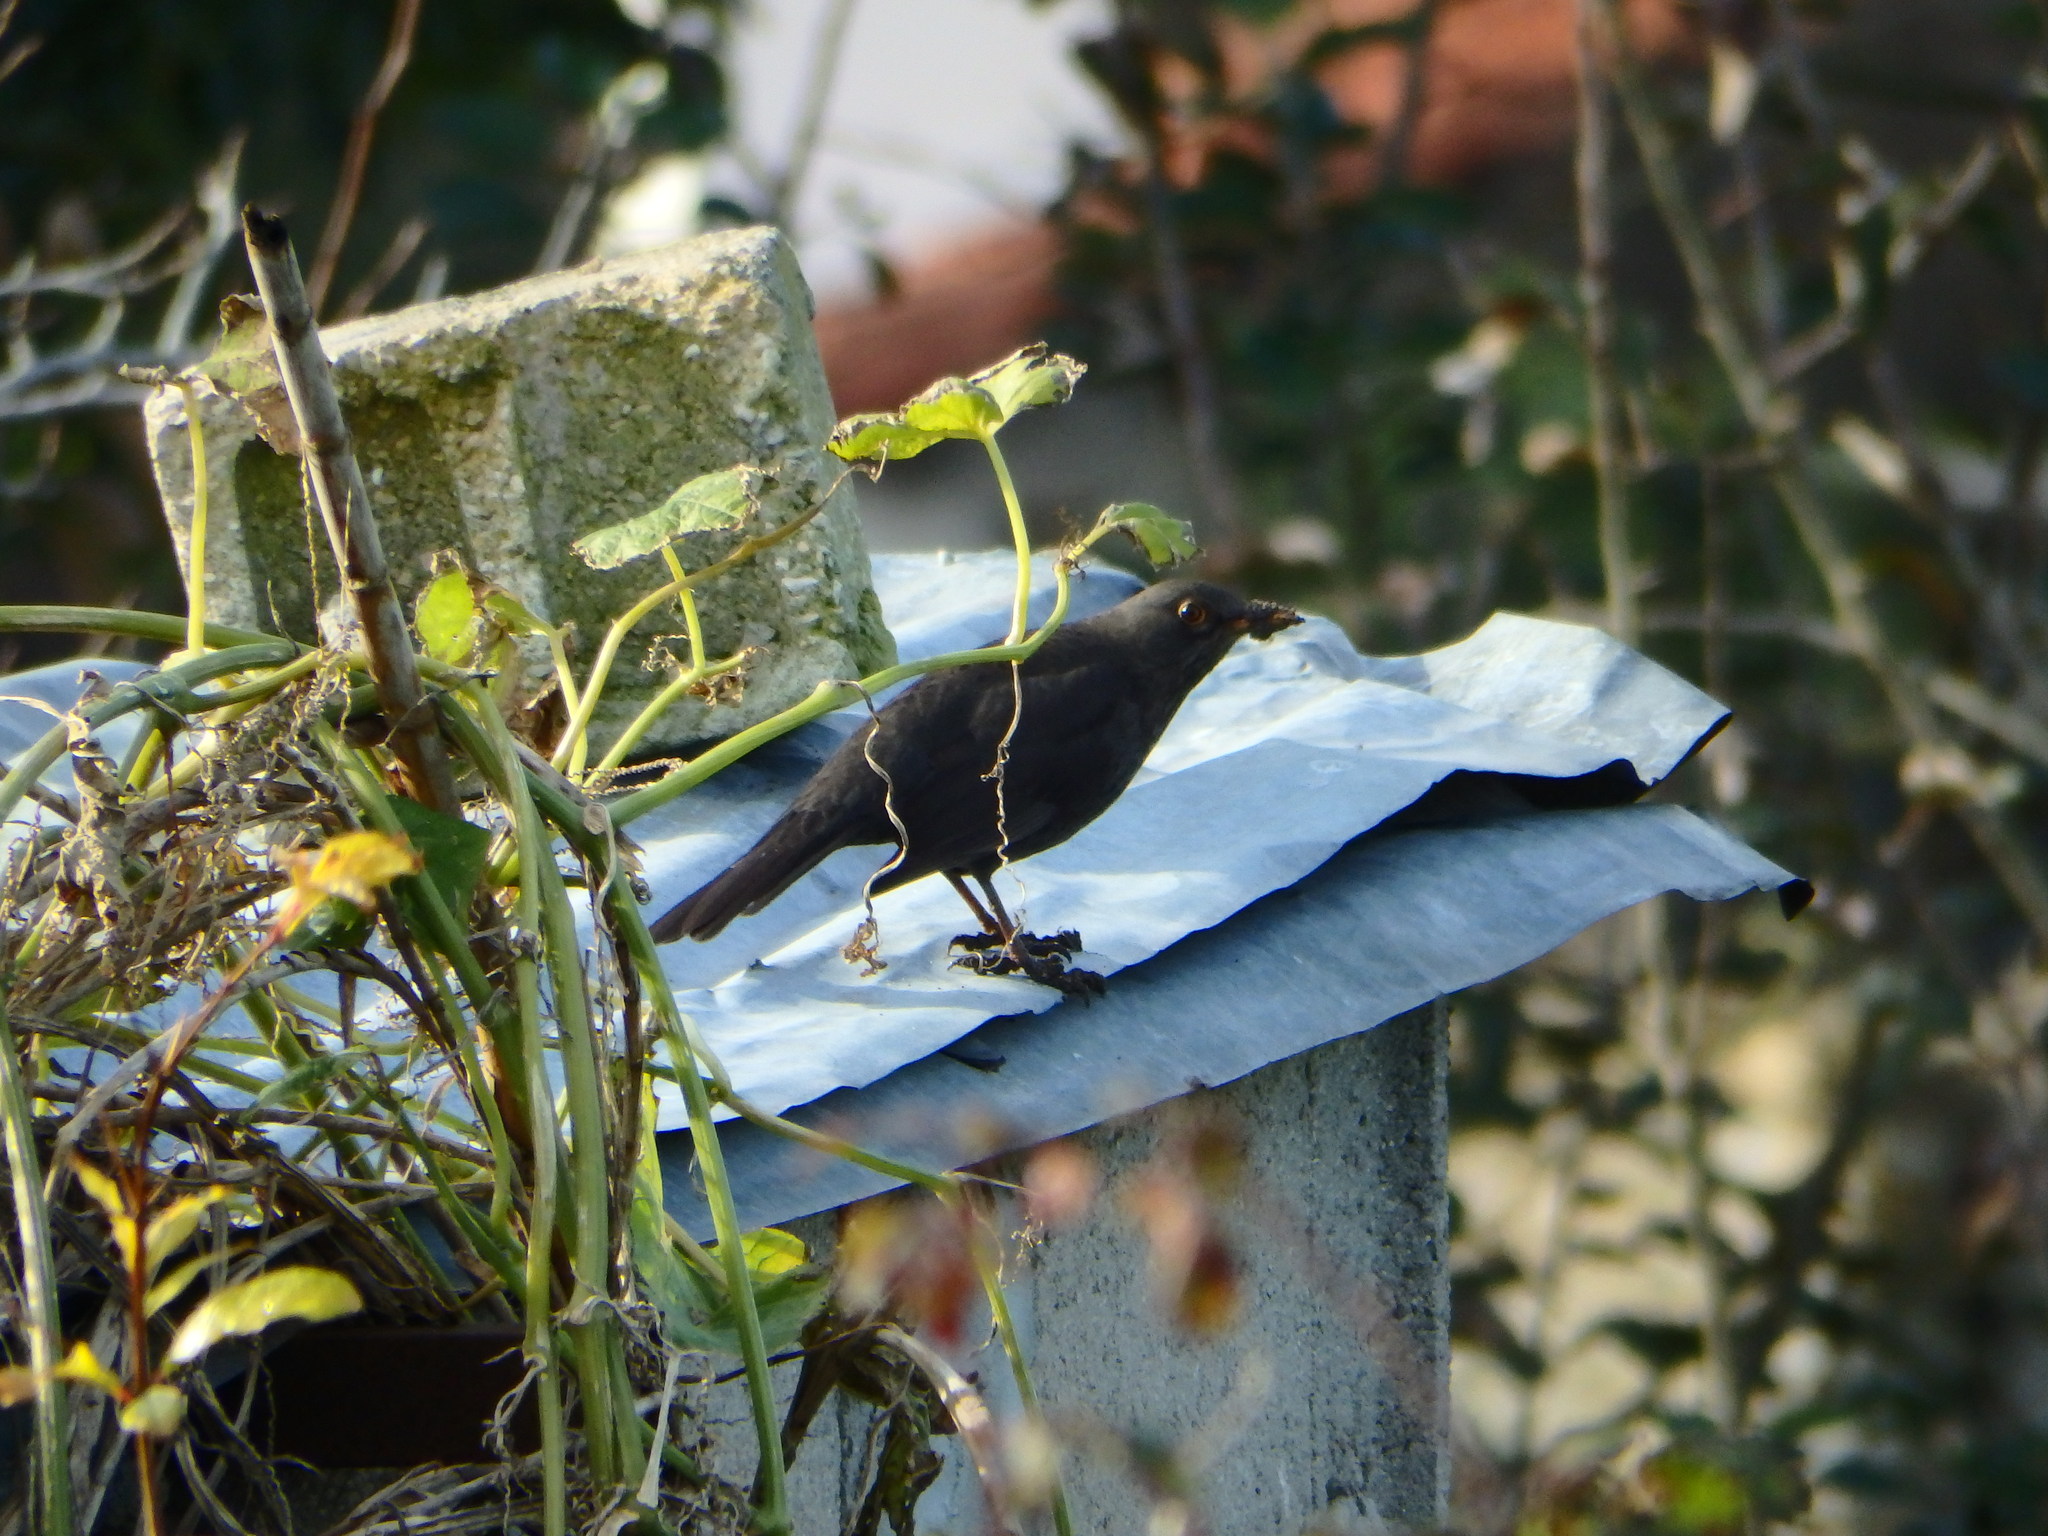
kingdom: Animalia
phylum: Chordata
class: Aves
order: Passeriformes
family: Turdidae
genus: Turdus
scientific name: Turdus merula
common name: Common blackbird
